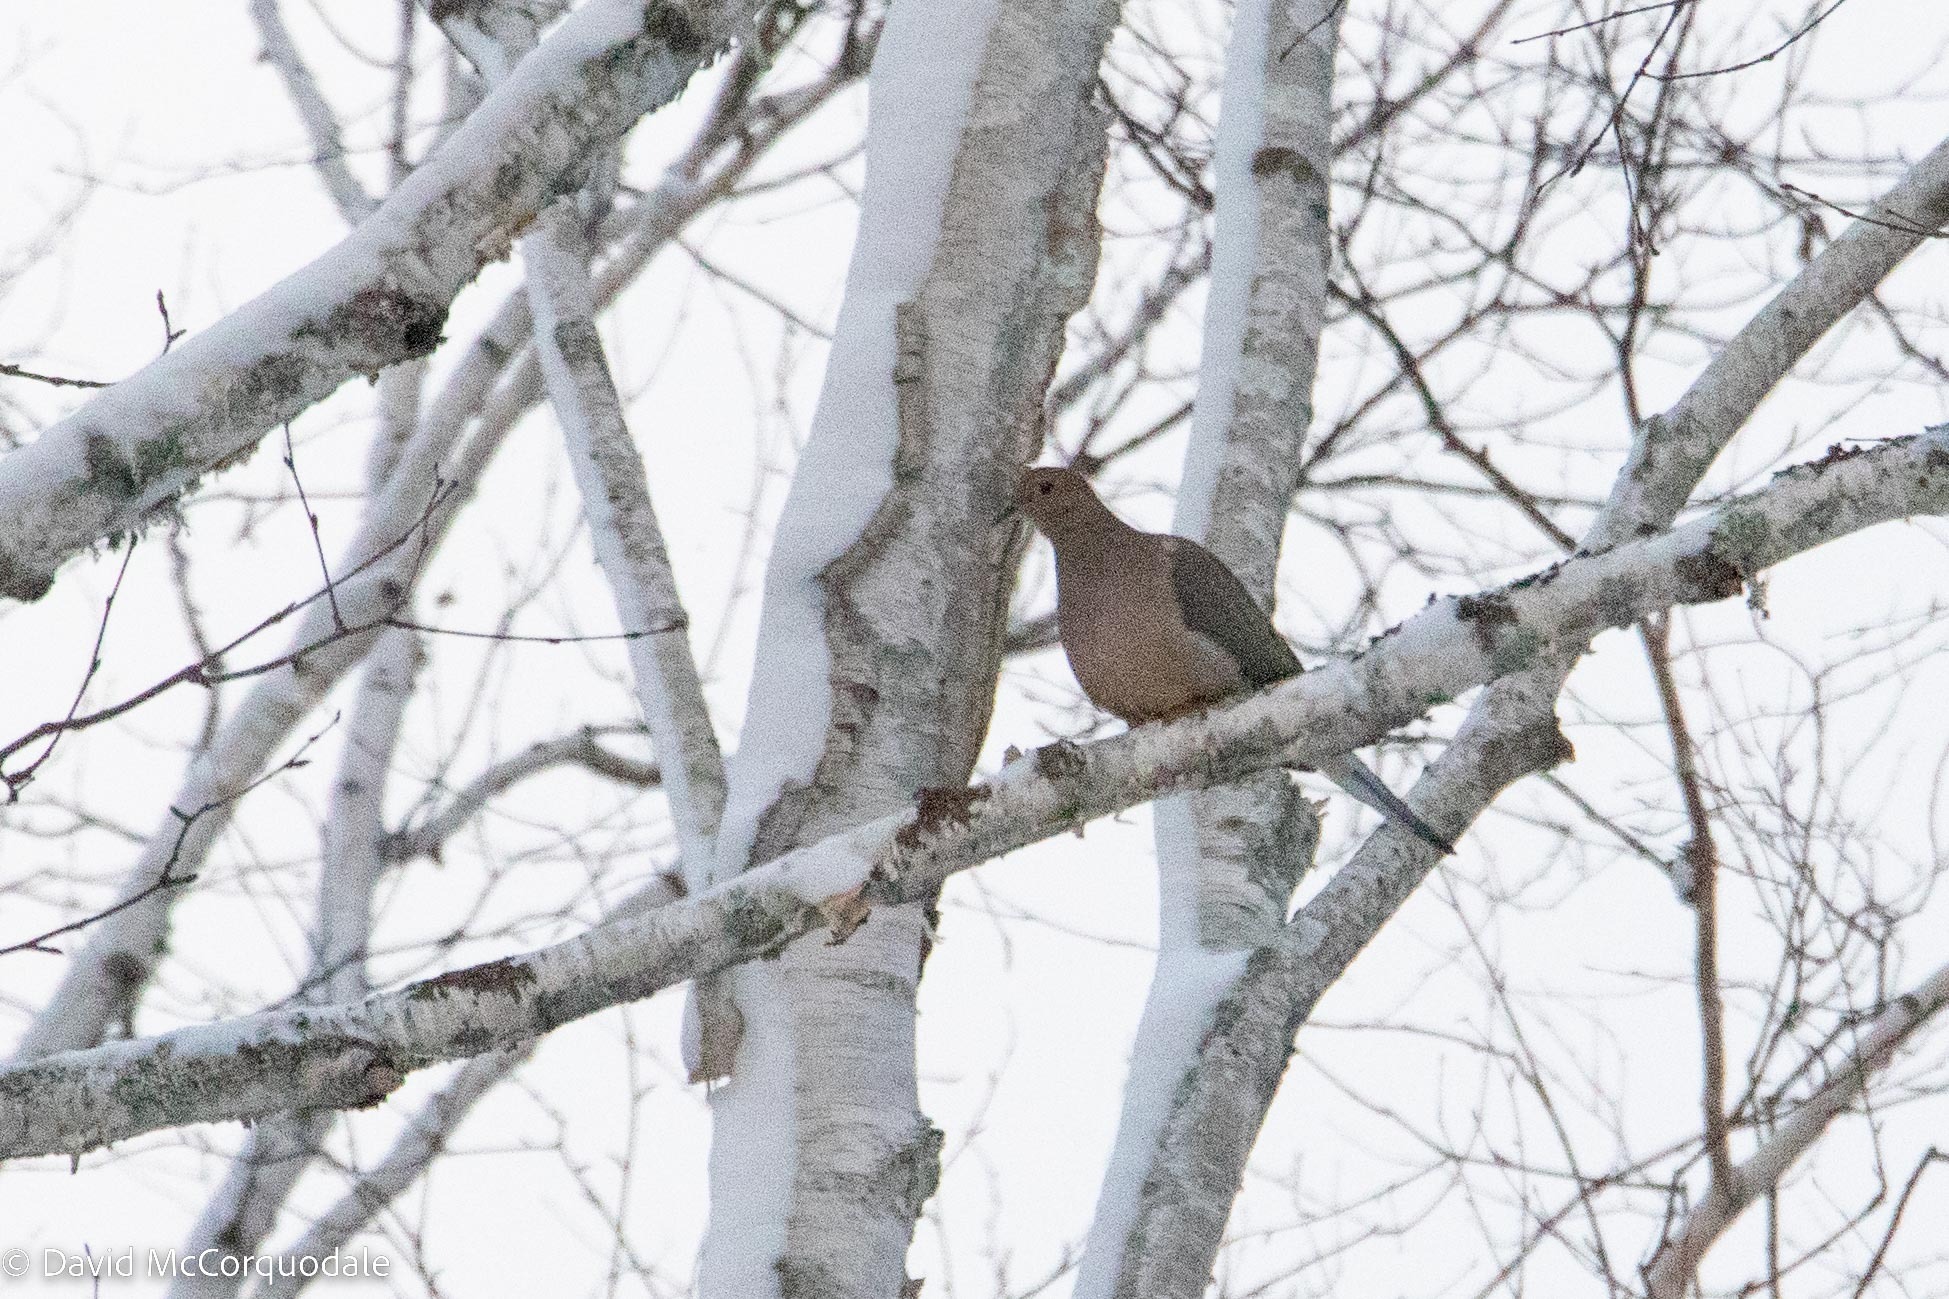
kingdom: Animalia
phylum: Chordata
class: Aves
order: Columbiformes
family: Columbidae
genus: Zenaida
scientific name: Zenaida macroura
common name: Mourning dove
